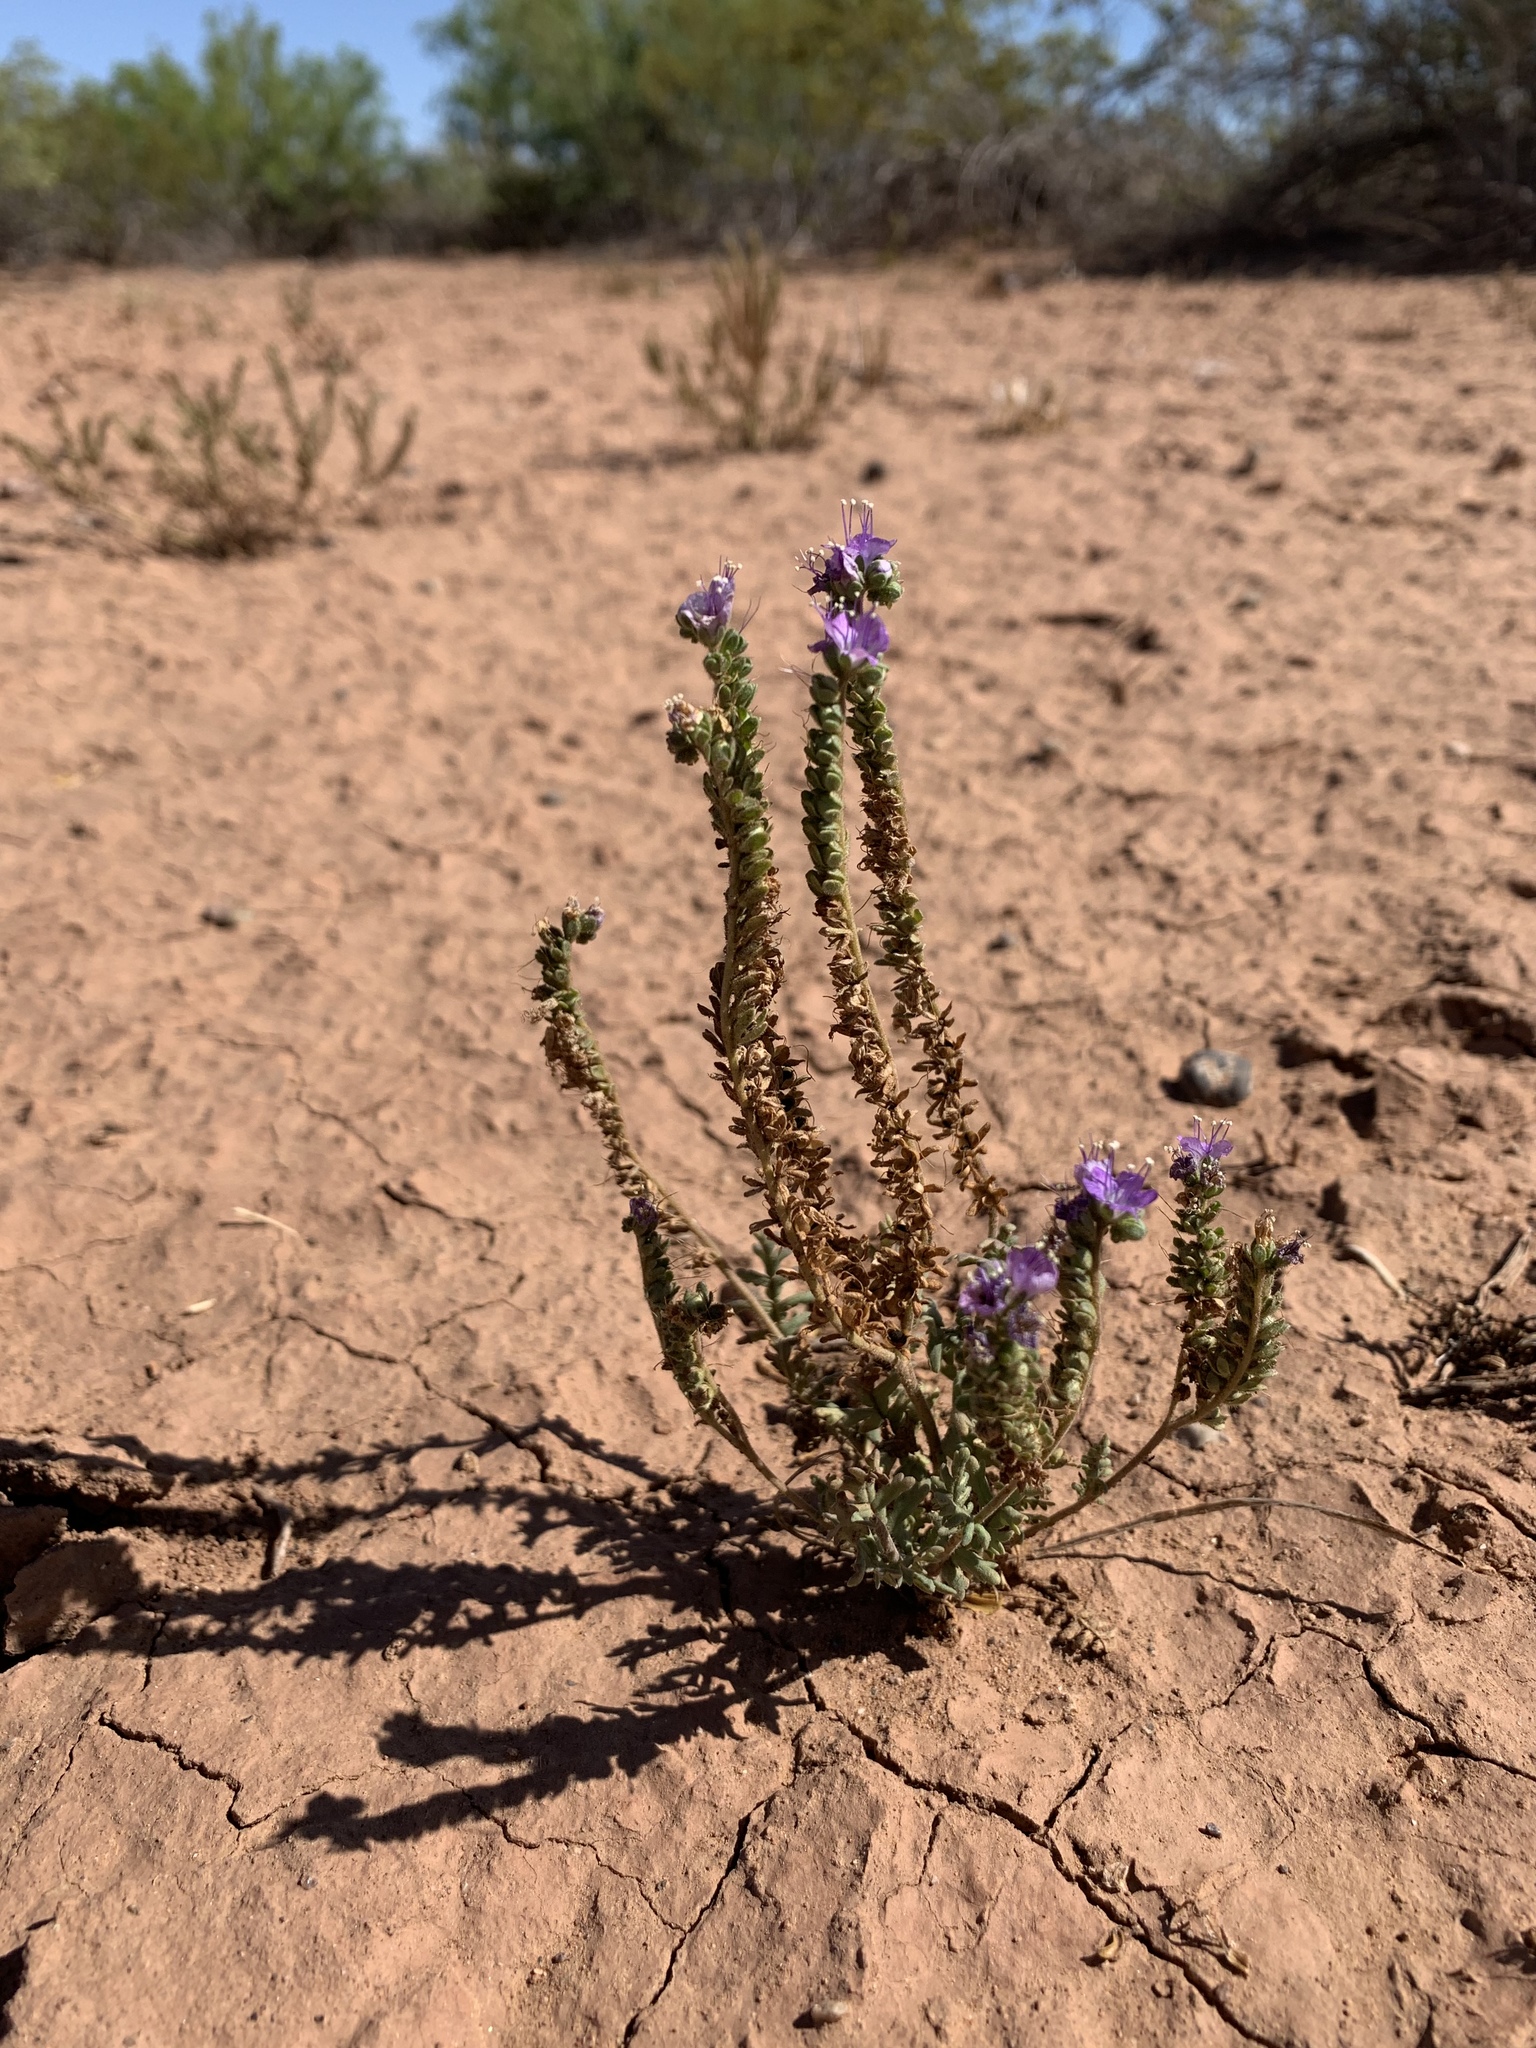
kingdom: Plantae
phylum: Tracheophyta
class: Magnoliopsida
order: Boraginales
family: Hydrophyllaceae
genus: Phacelia
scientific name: Phacelia popei
